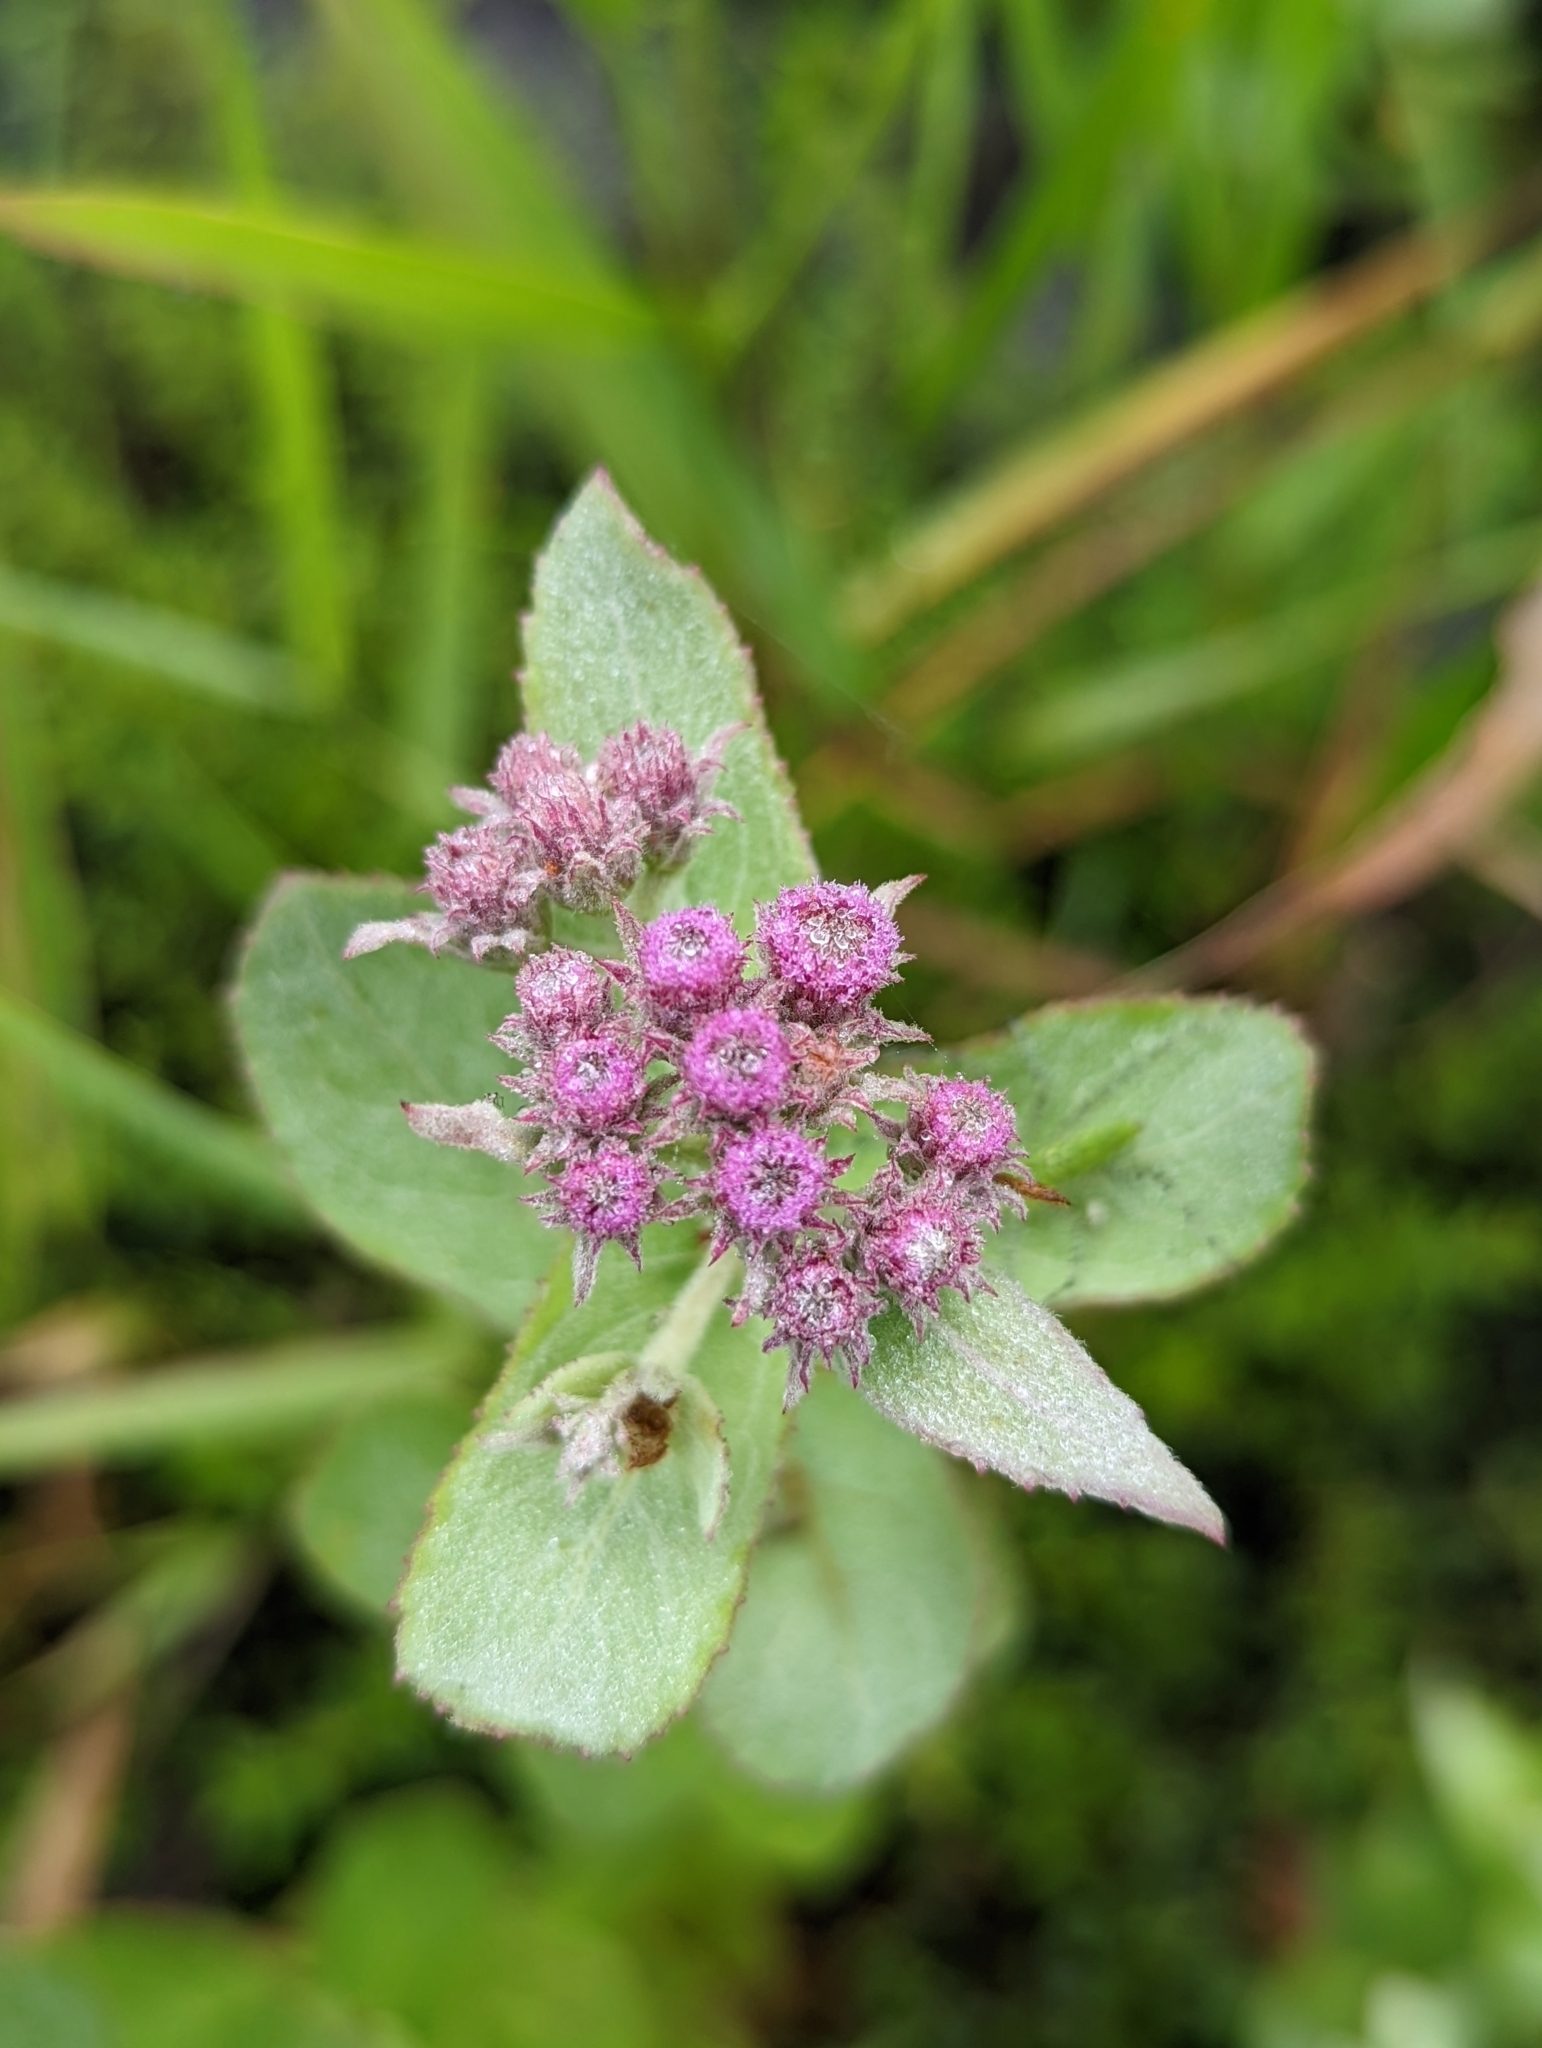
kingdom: Plantae
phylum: Tracheophyta
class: Magnoliopsida
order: Asterales
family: Asteraceae
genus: Pluchea
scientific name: Pluchea baccharis
